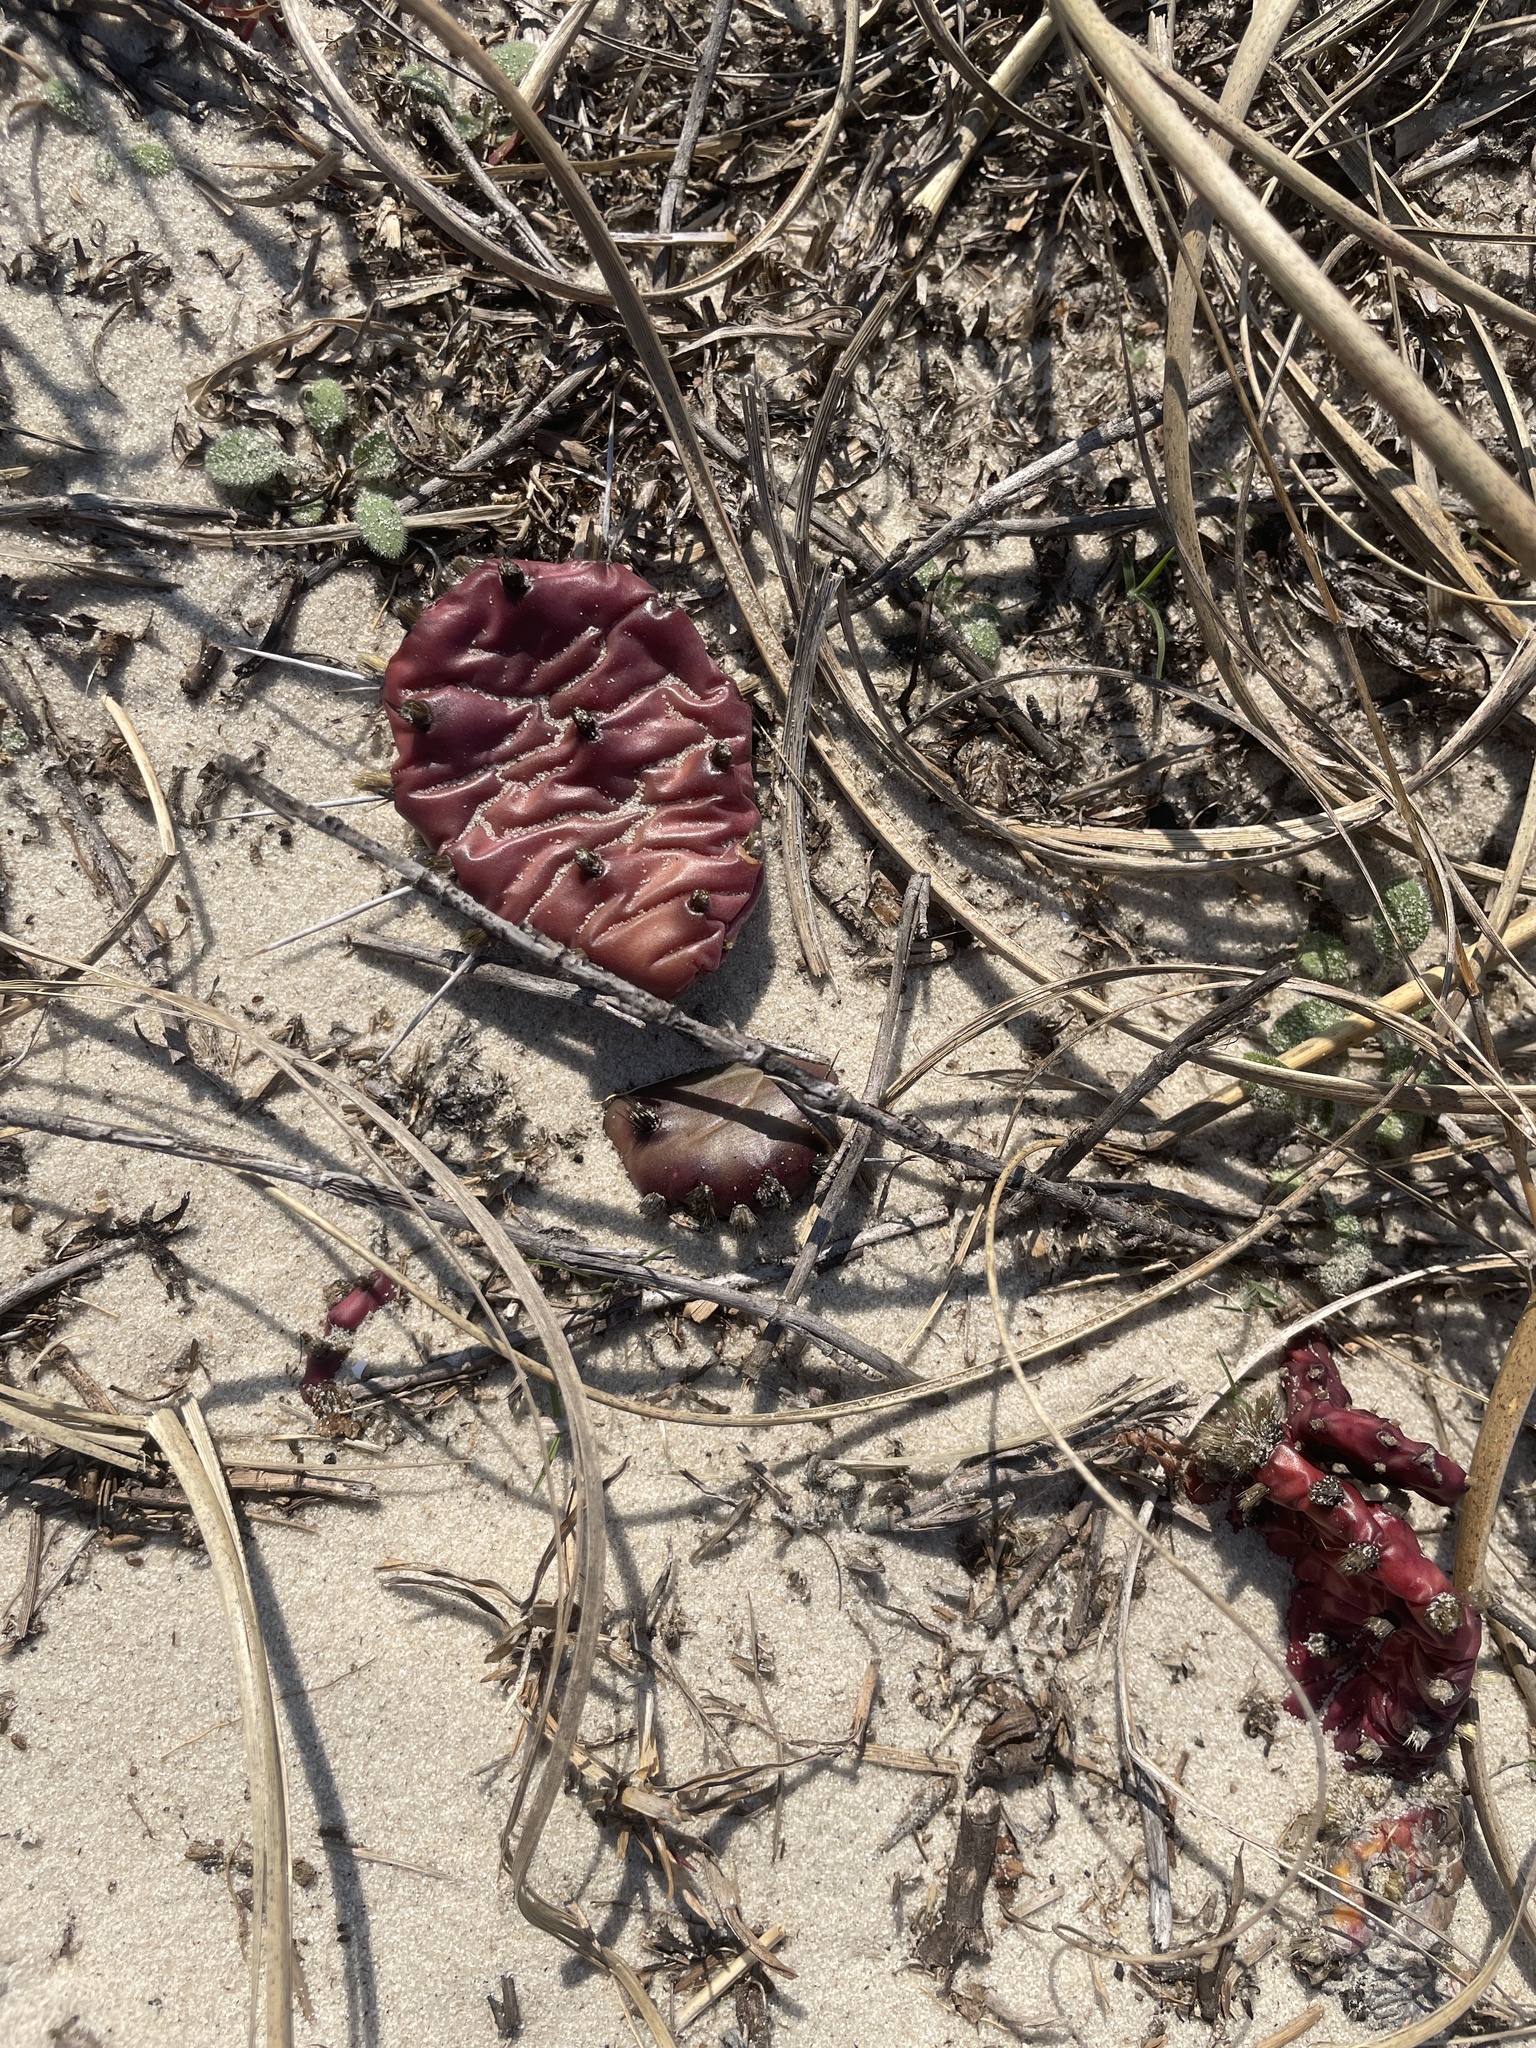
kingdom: Plantae
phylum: Tracheophyta
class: Magnoliopsida
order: Caryophyllales
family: Cactaceae
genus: Opuntia
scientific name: Opuntia drummondii
